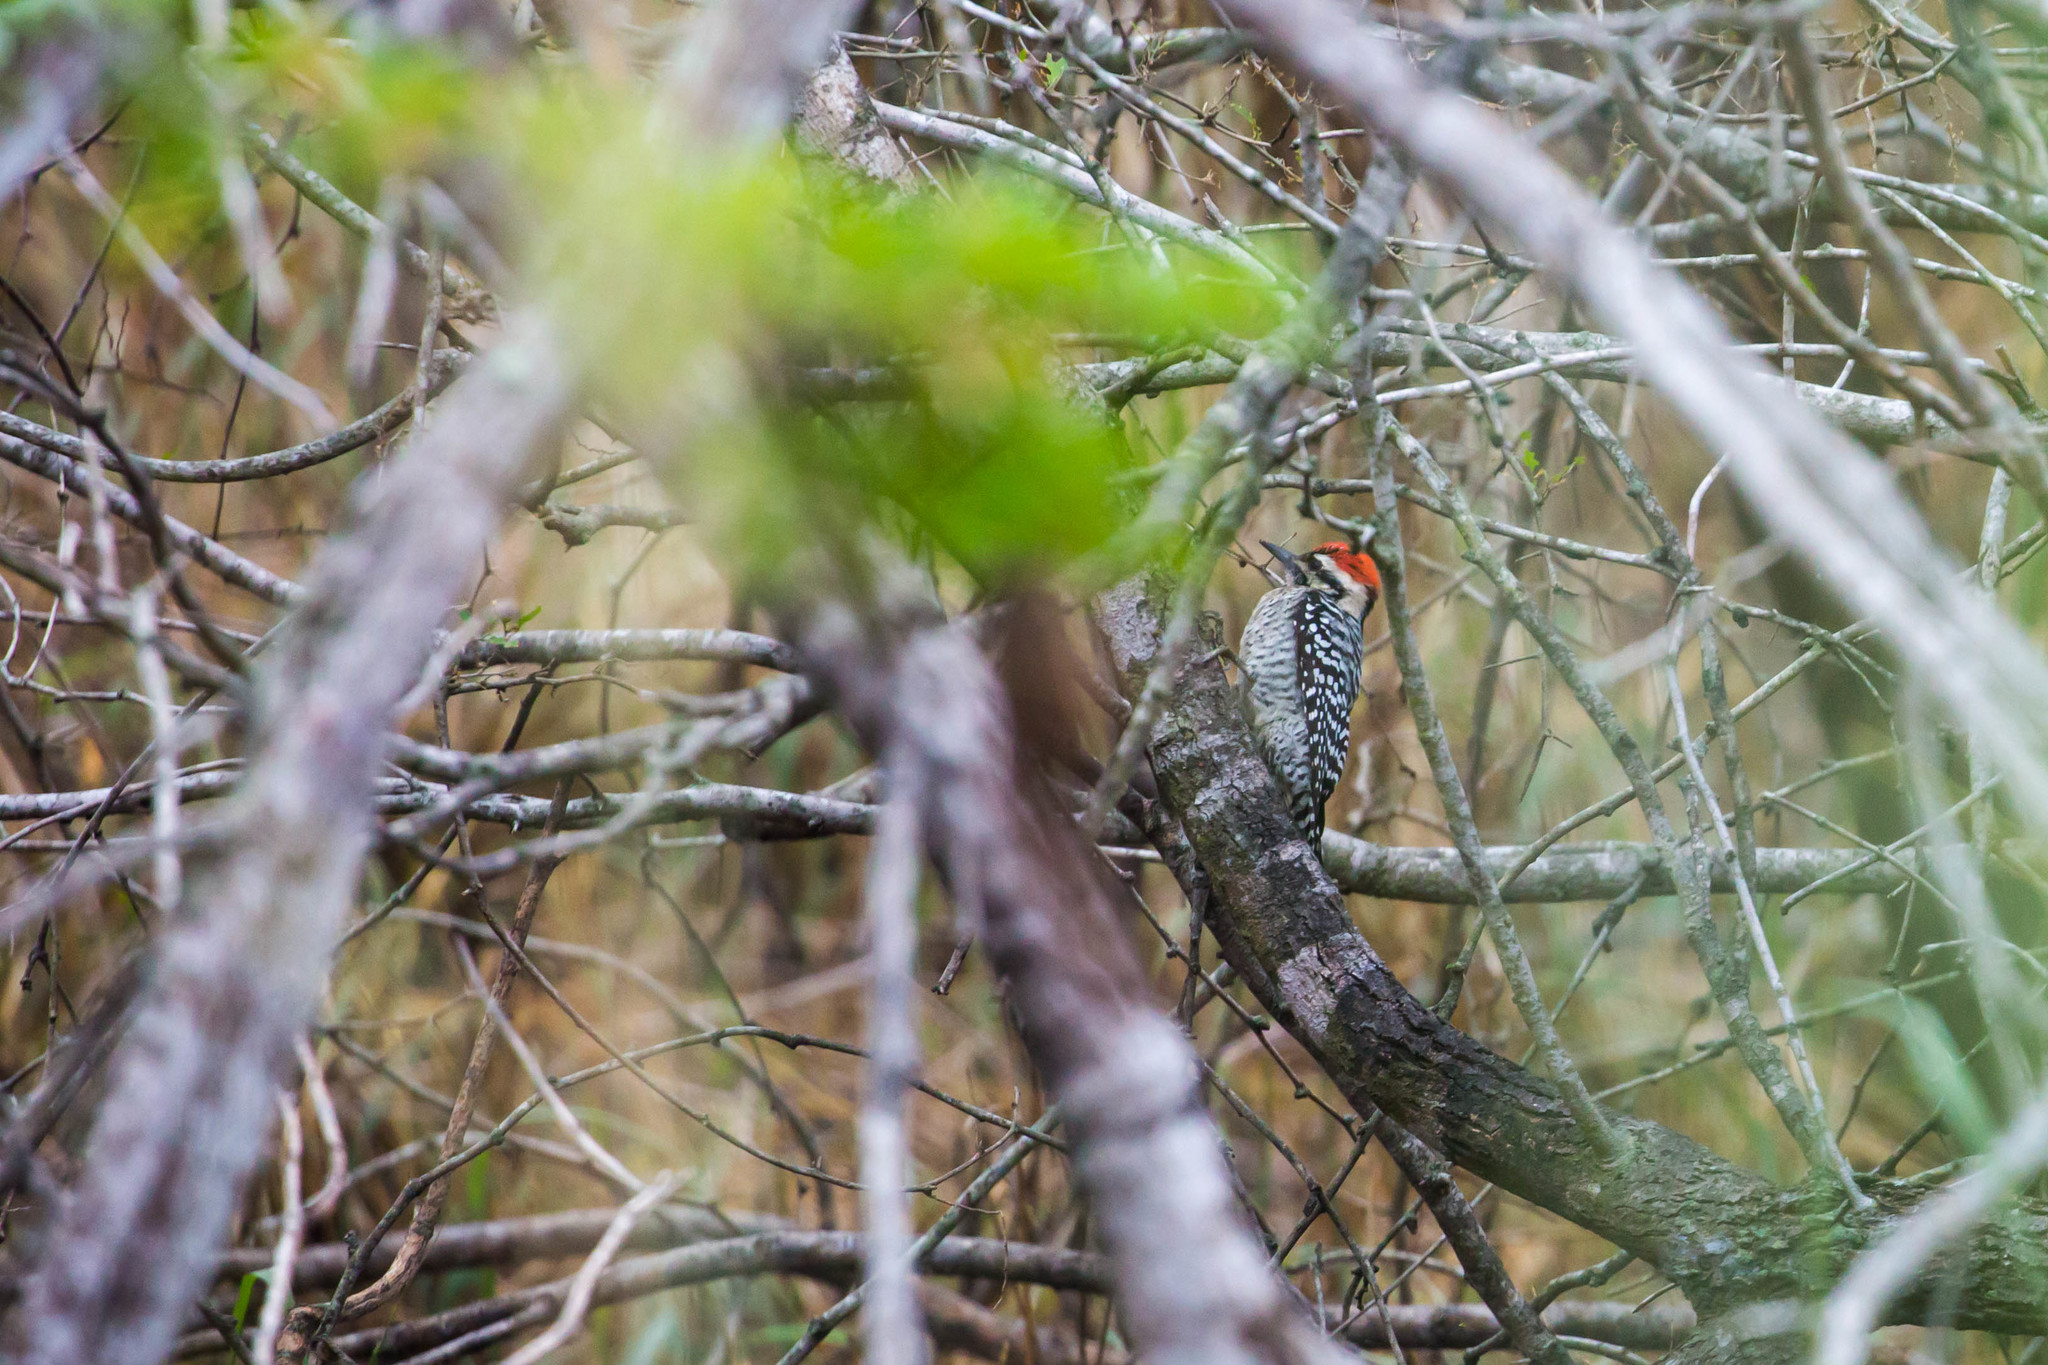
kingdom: Animalia
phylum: Chordata
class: Aves
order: Piciformes
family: Picidae
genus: Dryobates
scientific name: Dryobates scalaris
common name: Ladder-backed woodpecker
